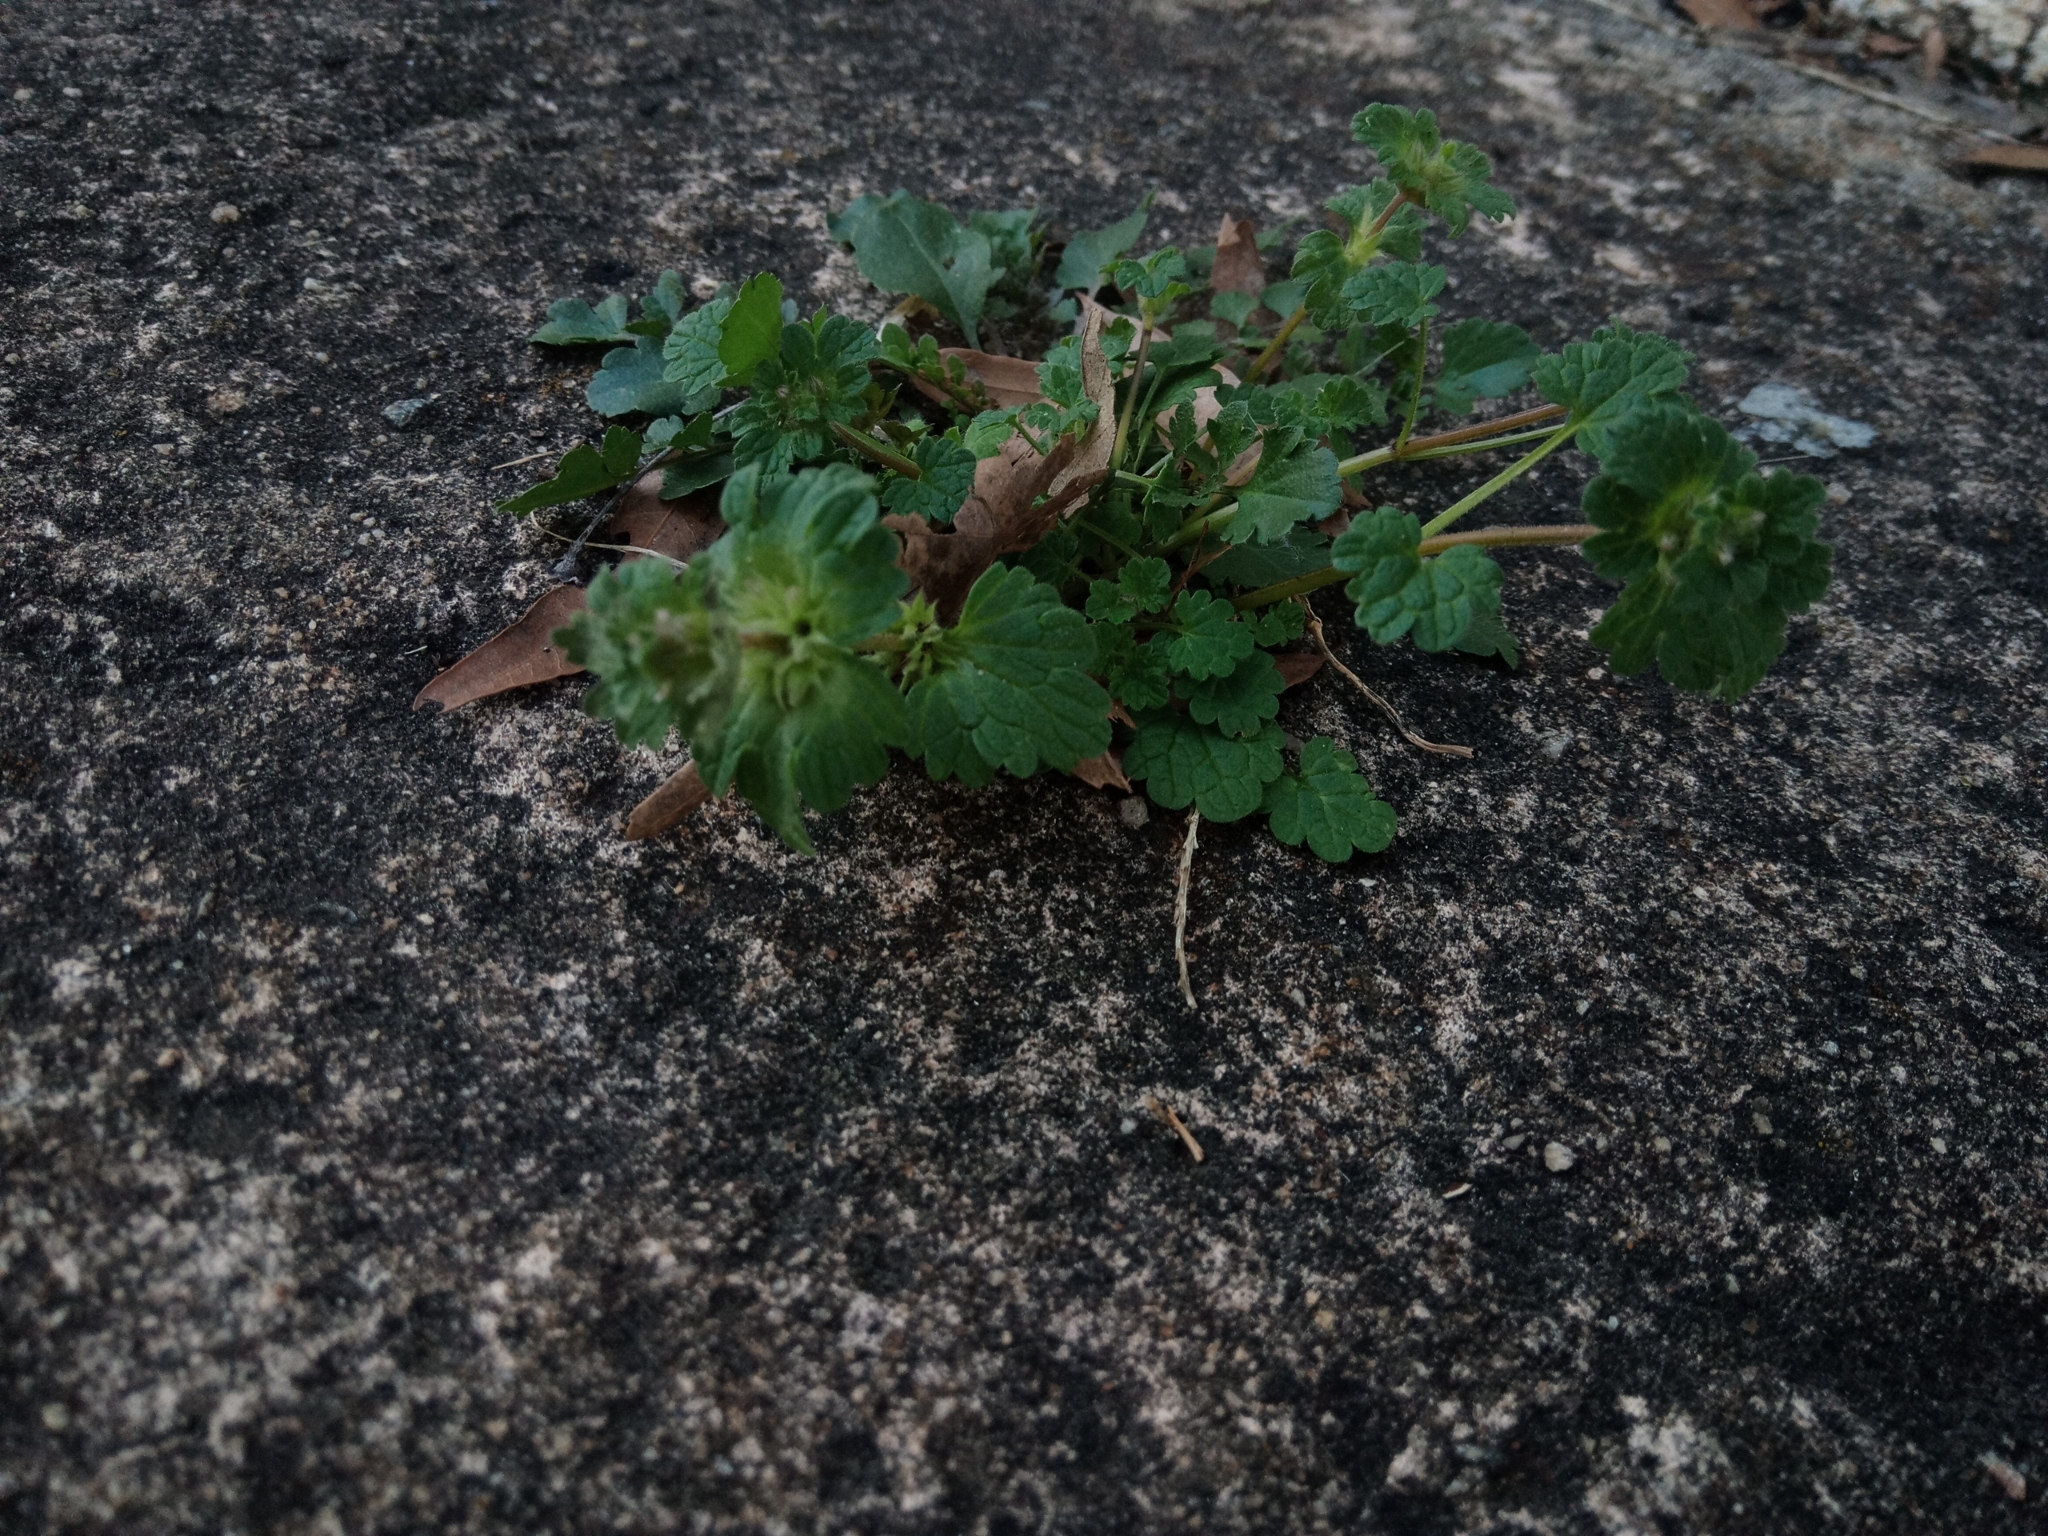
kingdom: Plantae
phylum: Tracheophyta
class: Magnoliopsida
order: Lamiales
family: Lamiaceae
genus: Lamium
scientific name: Lamium amplexicaule
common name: Henbit dead-nettle
